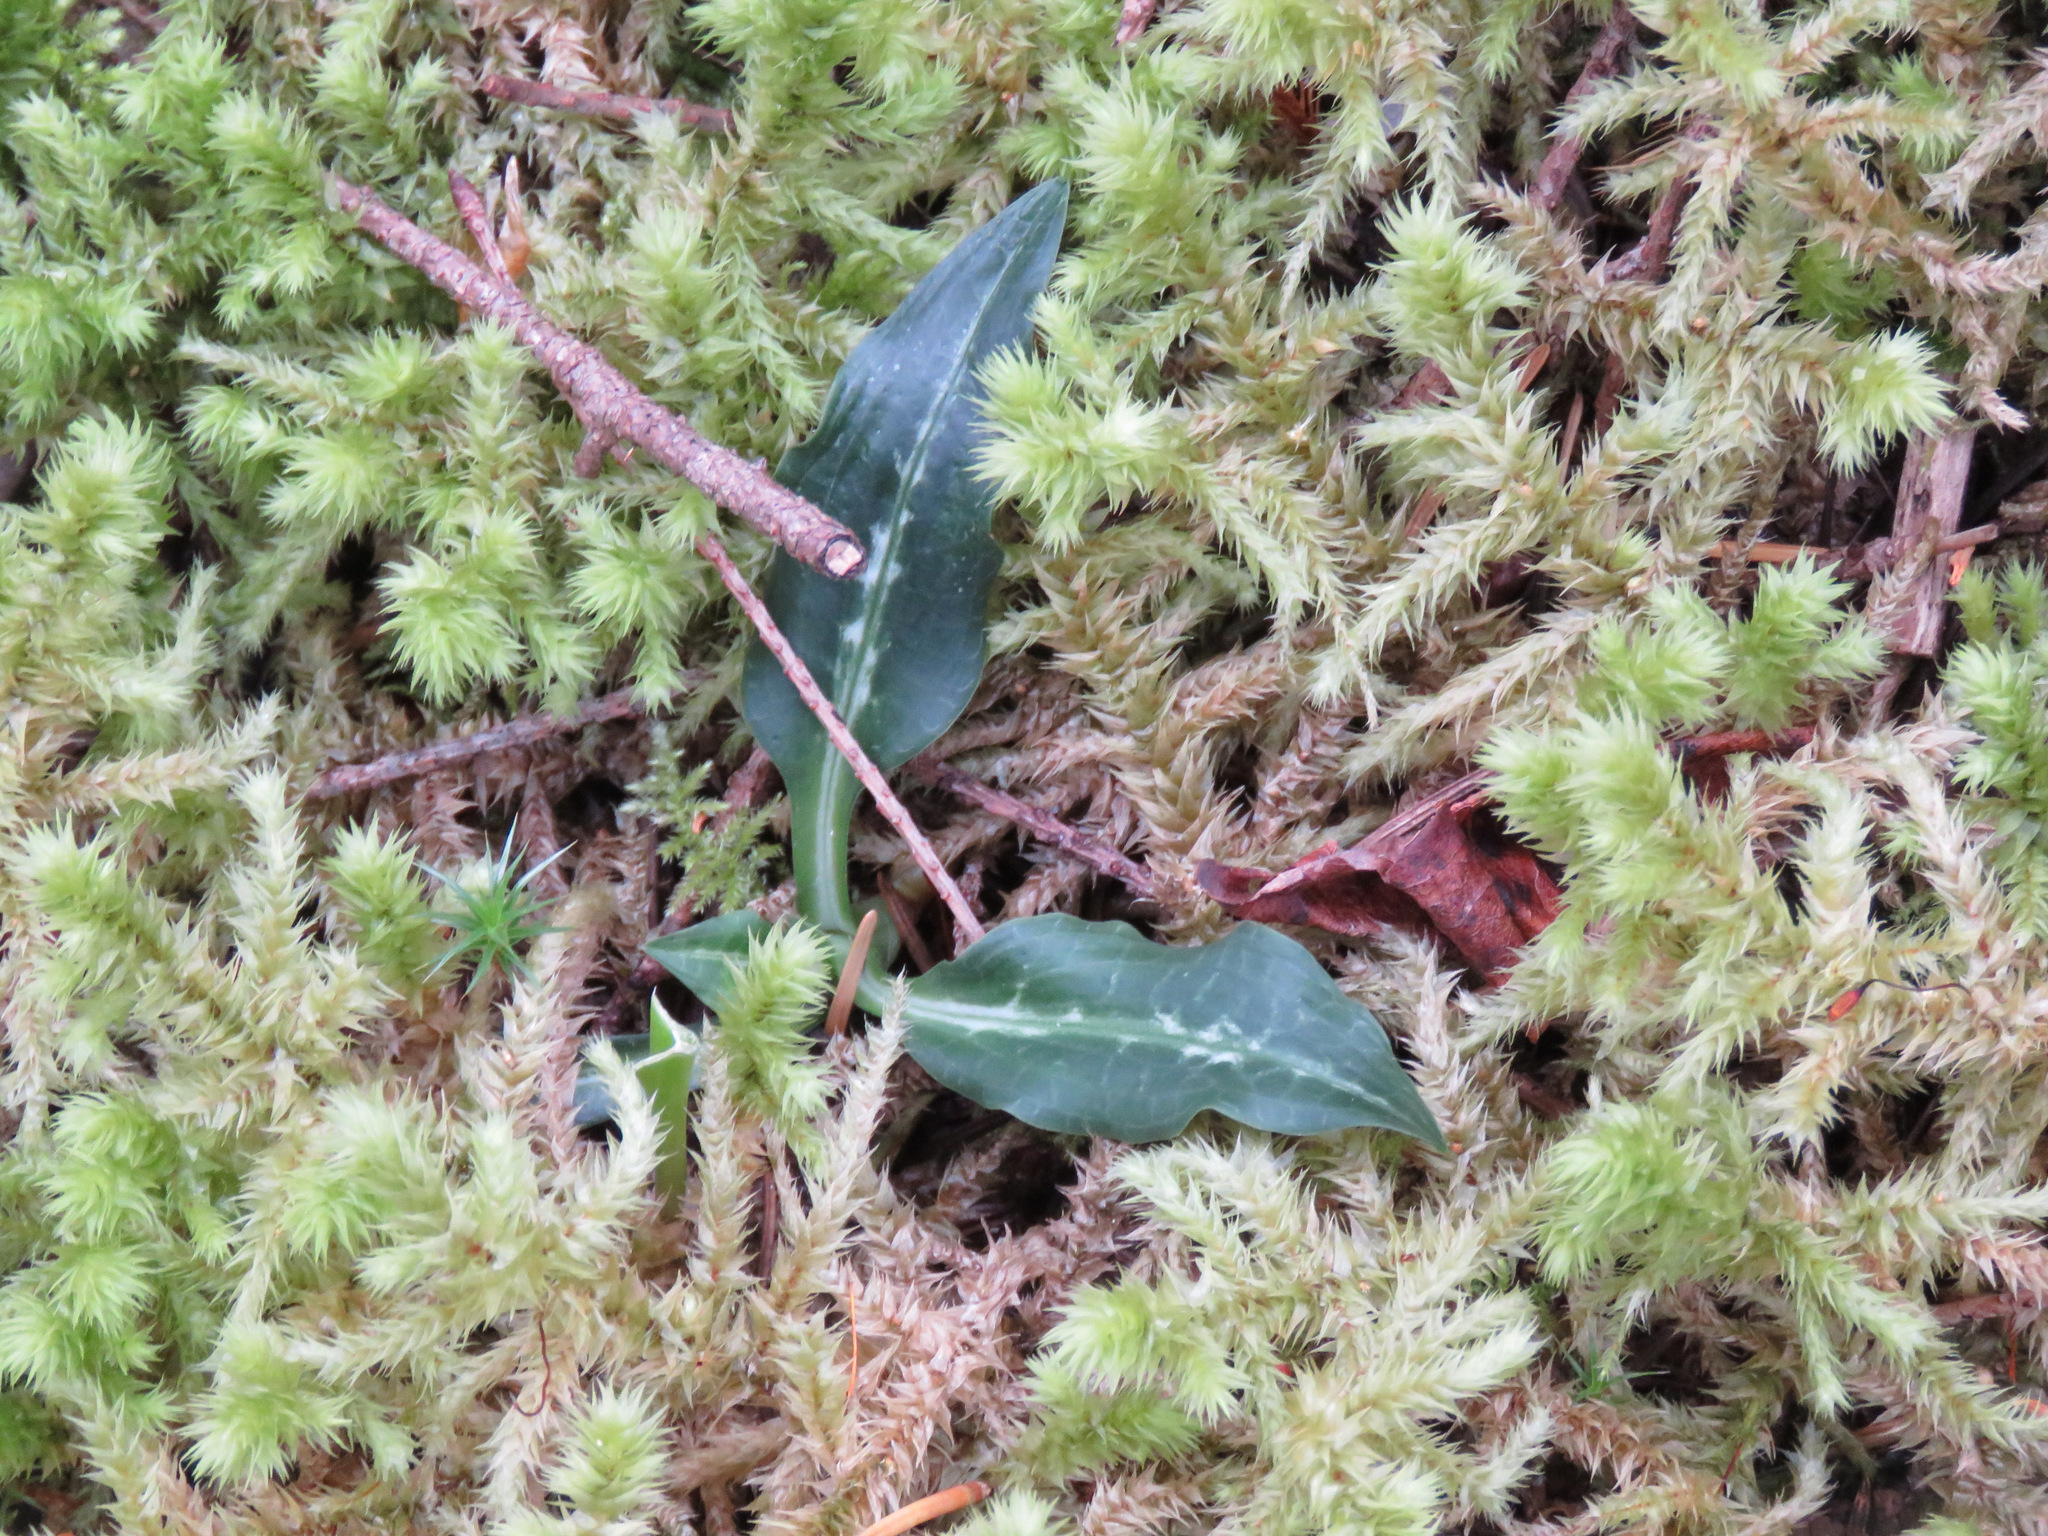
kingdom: Plantae
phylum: Tracheophyta
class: Liliopsida
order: Asparagales
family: Orchidaceae
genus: Goodyera
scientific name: Goodyera oblongifolia
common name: Giant rattlesnake-plantain
